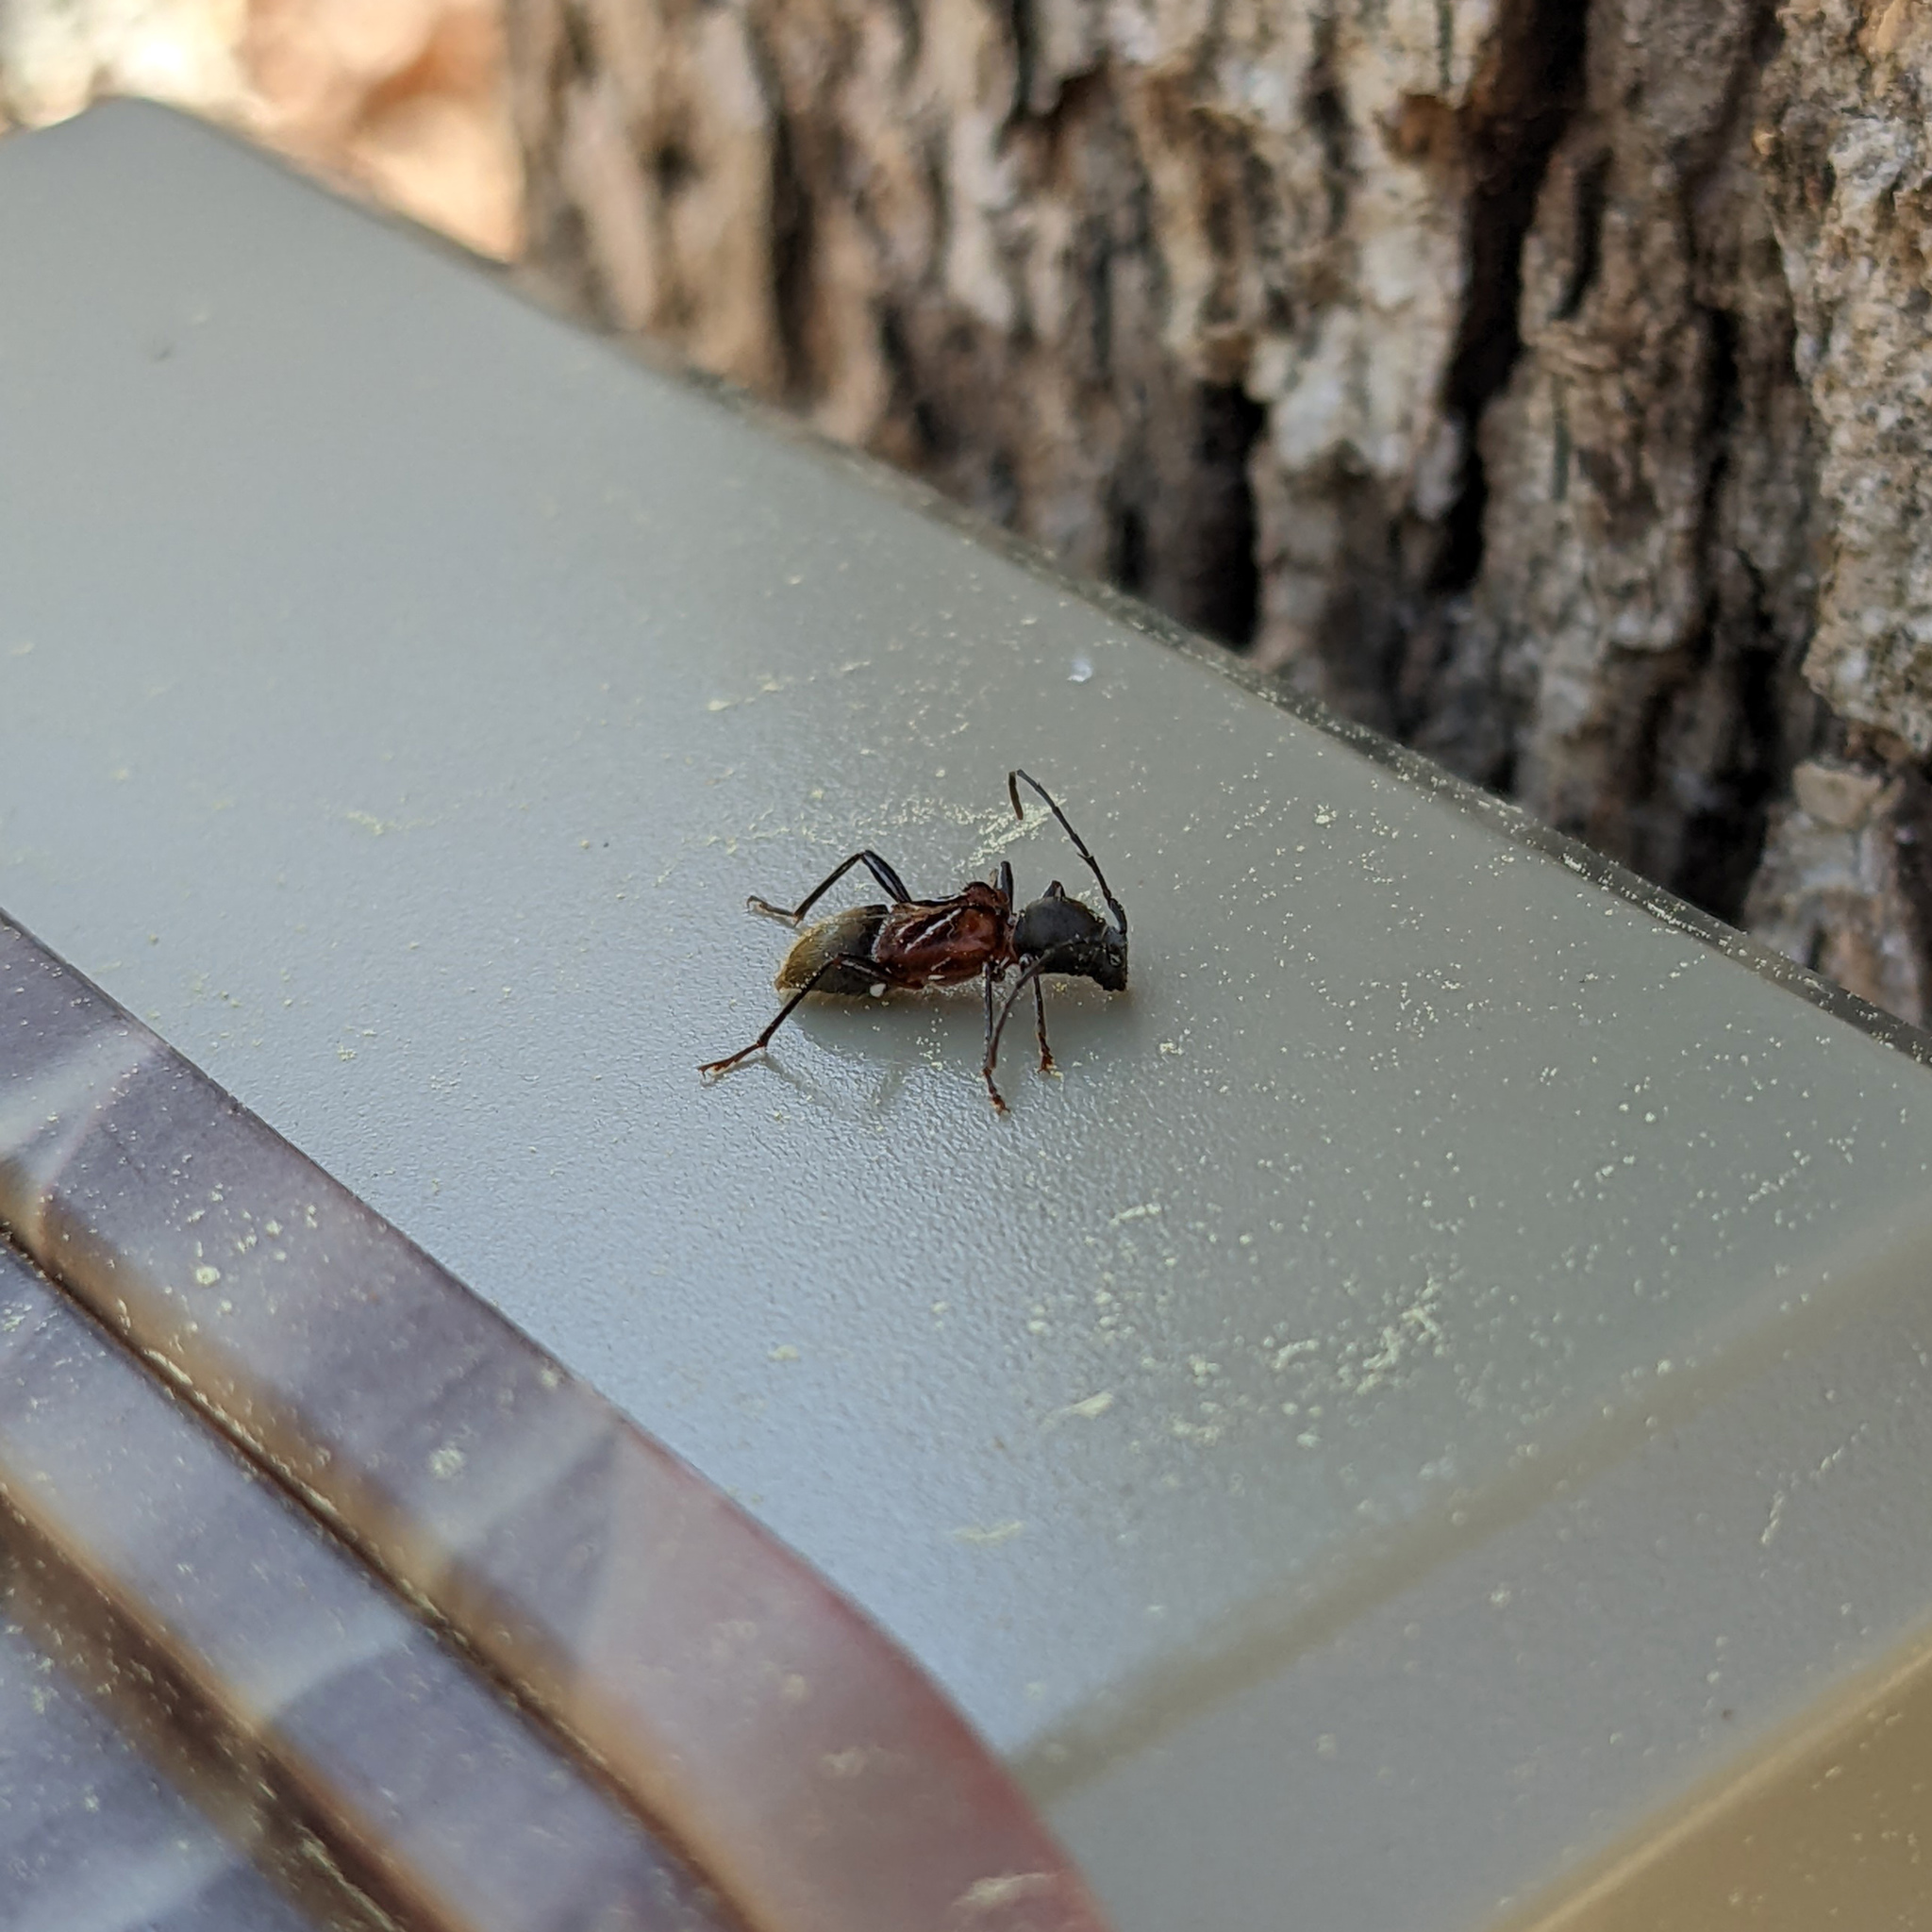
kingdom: Animalia
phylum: Arthropoda
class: Insecta
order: Coleoptera
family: Cerambycidae
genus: Cyrtophorus
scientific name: Cyrtophorus verrucosus
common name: Ant-like longhorn beetle
